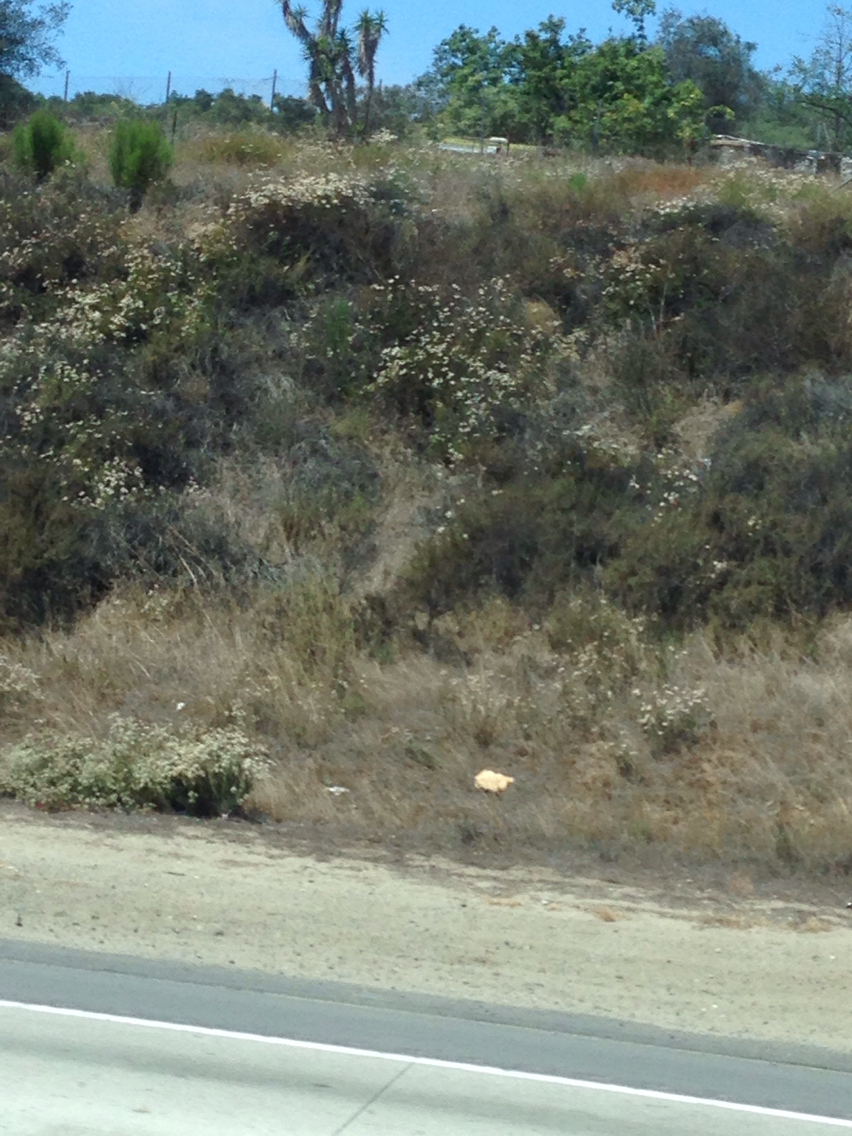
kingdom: Plantae
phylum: Tracheophyta
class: Magnoliopsida
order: Caryophyllales
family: Polygonaceae
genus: Eriogonum
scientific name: Eriogonum fasciculatum
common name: California wild buckwheat
